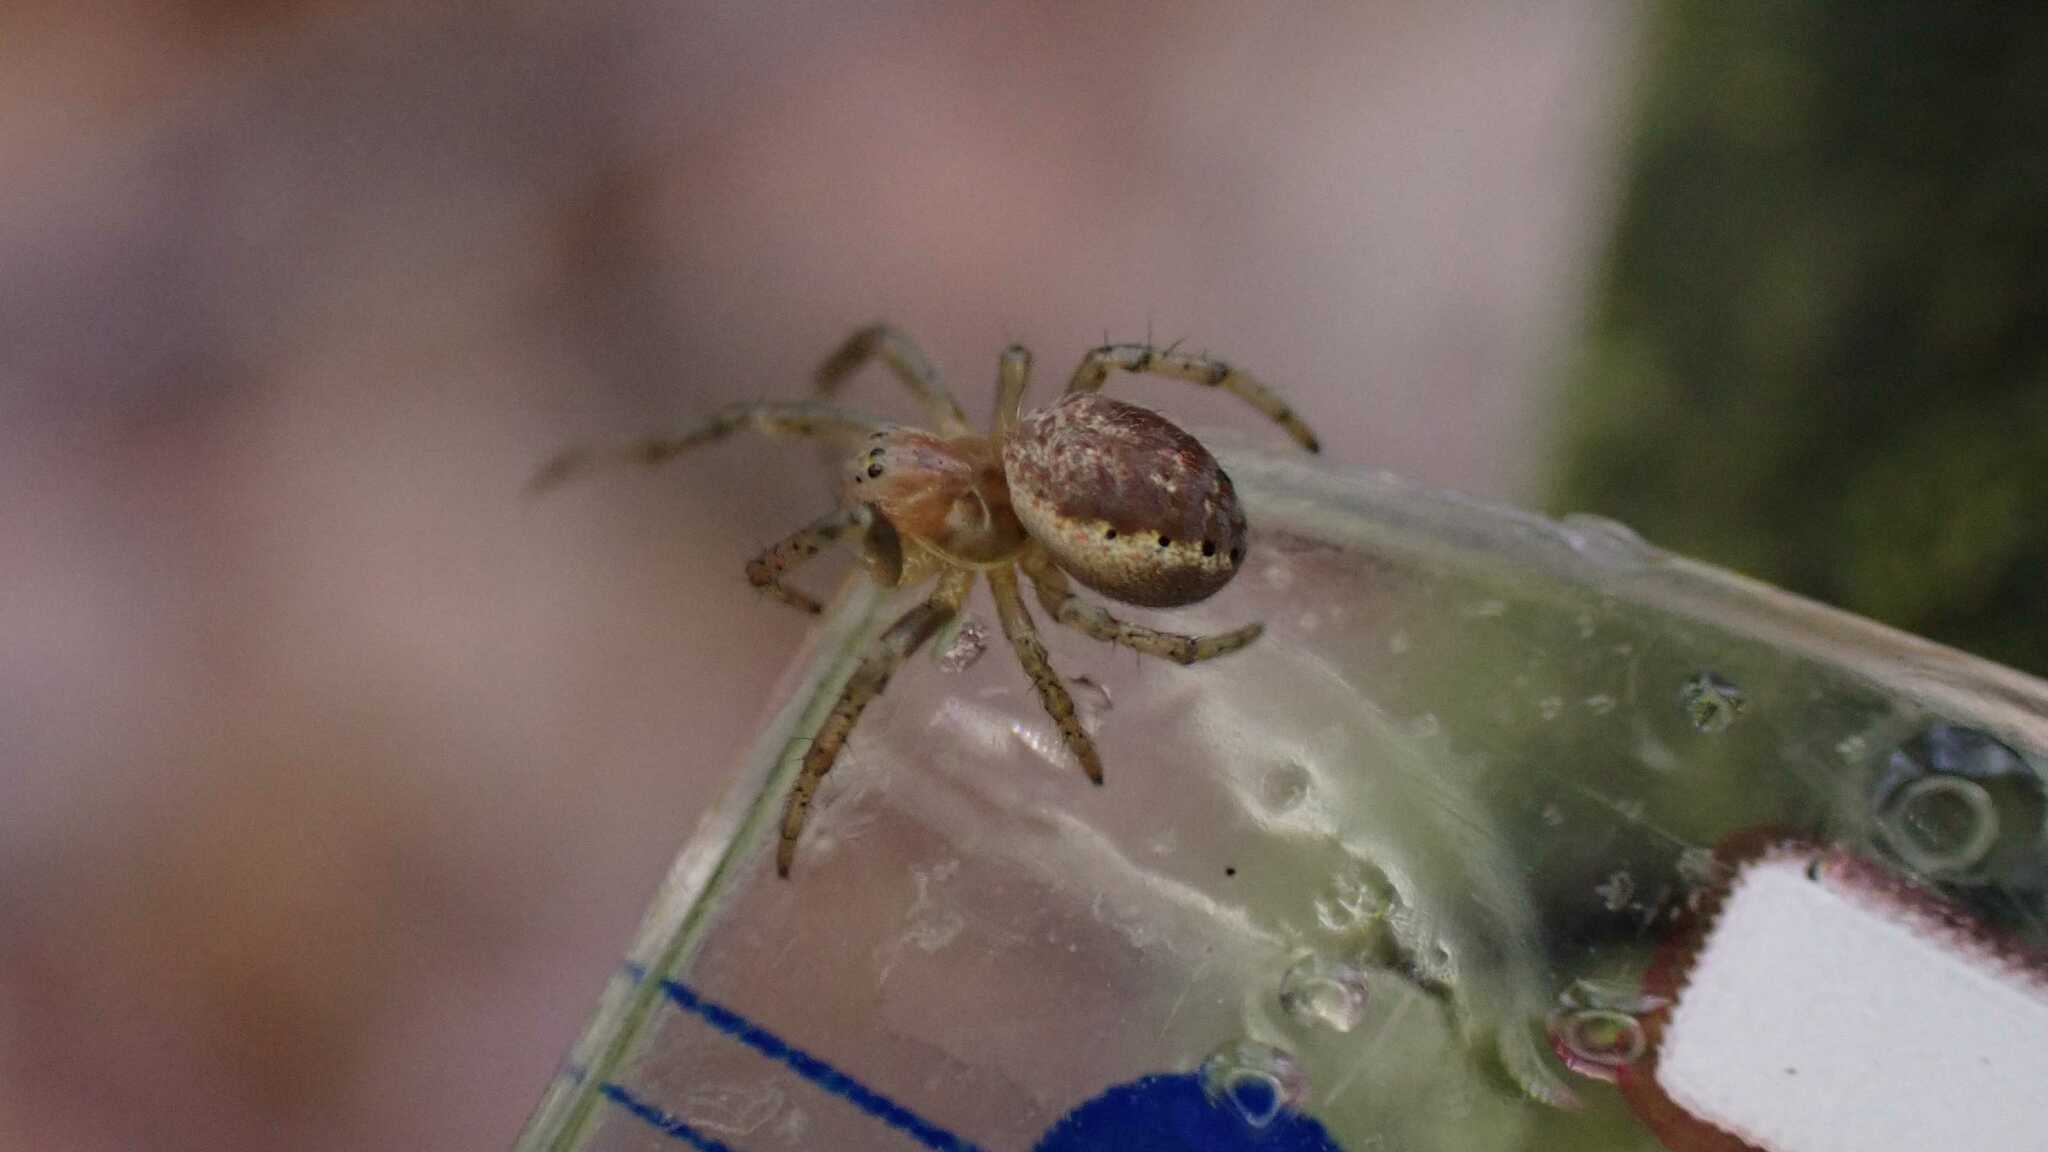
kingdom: Animalia
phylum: Arthropoda
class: Arachnida
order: Araneae
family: Araneidae
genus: Araniella
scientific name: Araniella
